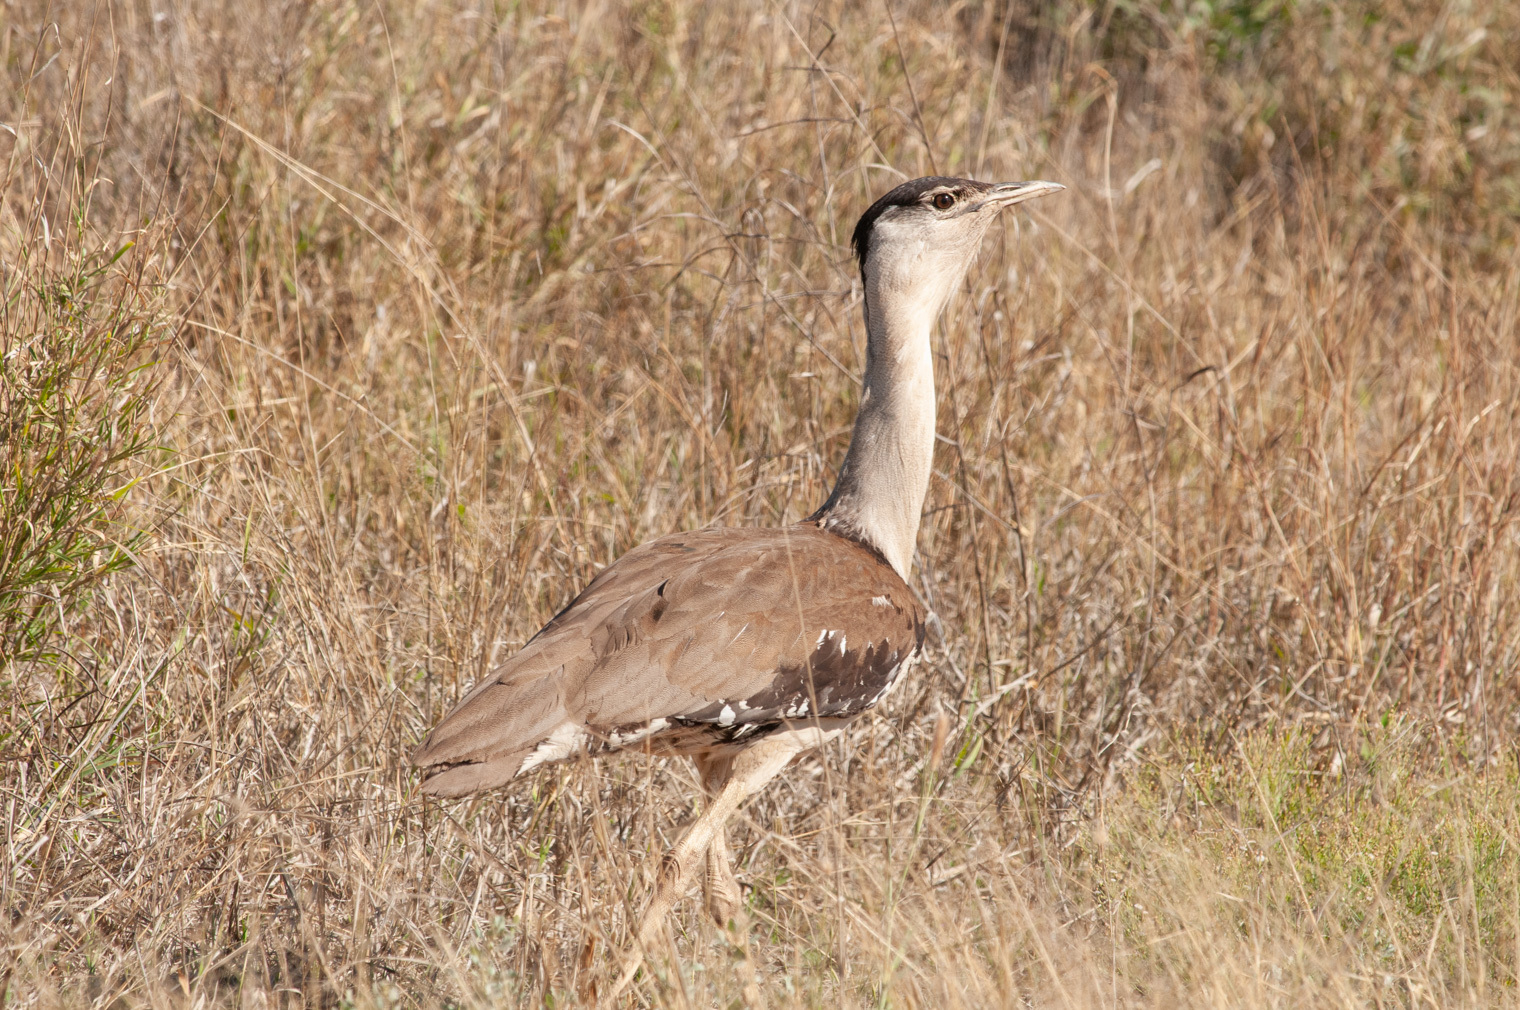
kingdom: Animalia
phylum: Chordata
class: Aves
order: Otidiformes
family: Otididae
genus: Ardeotis
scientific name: Ardeotis australis
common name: Australian bustard
